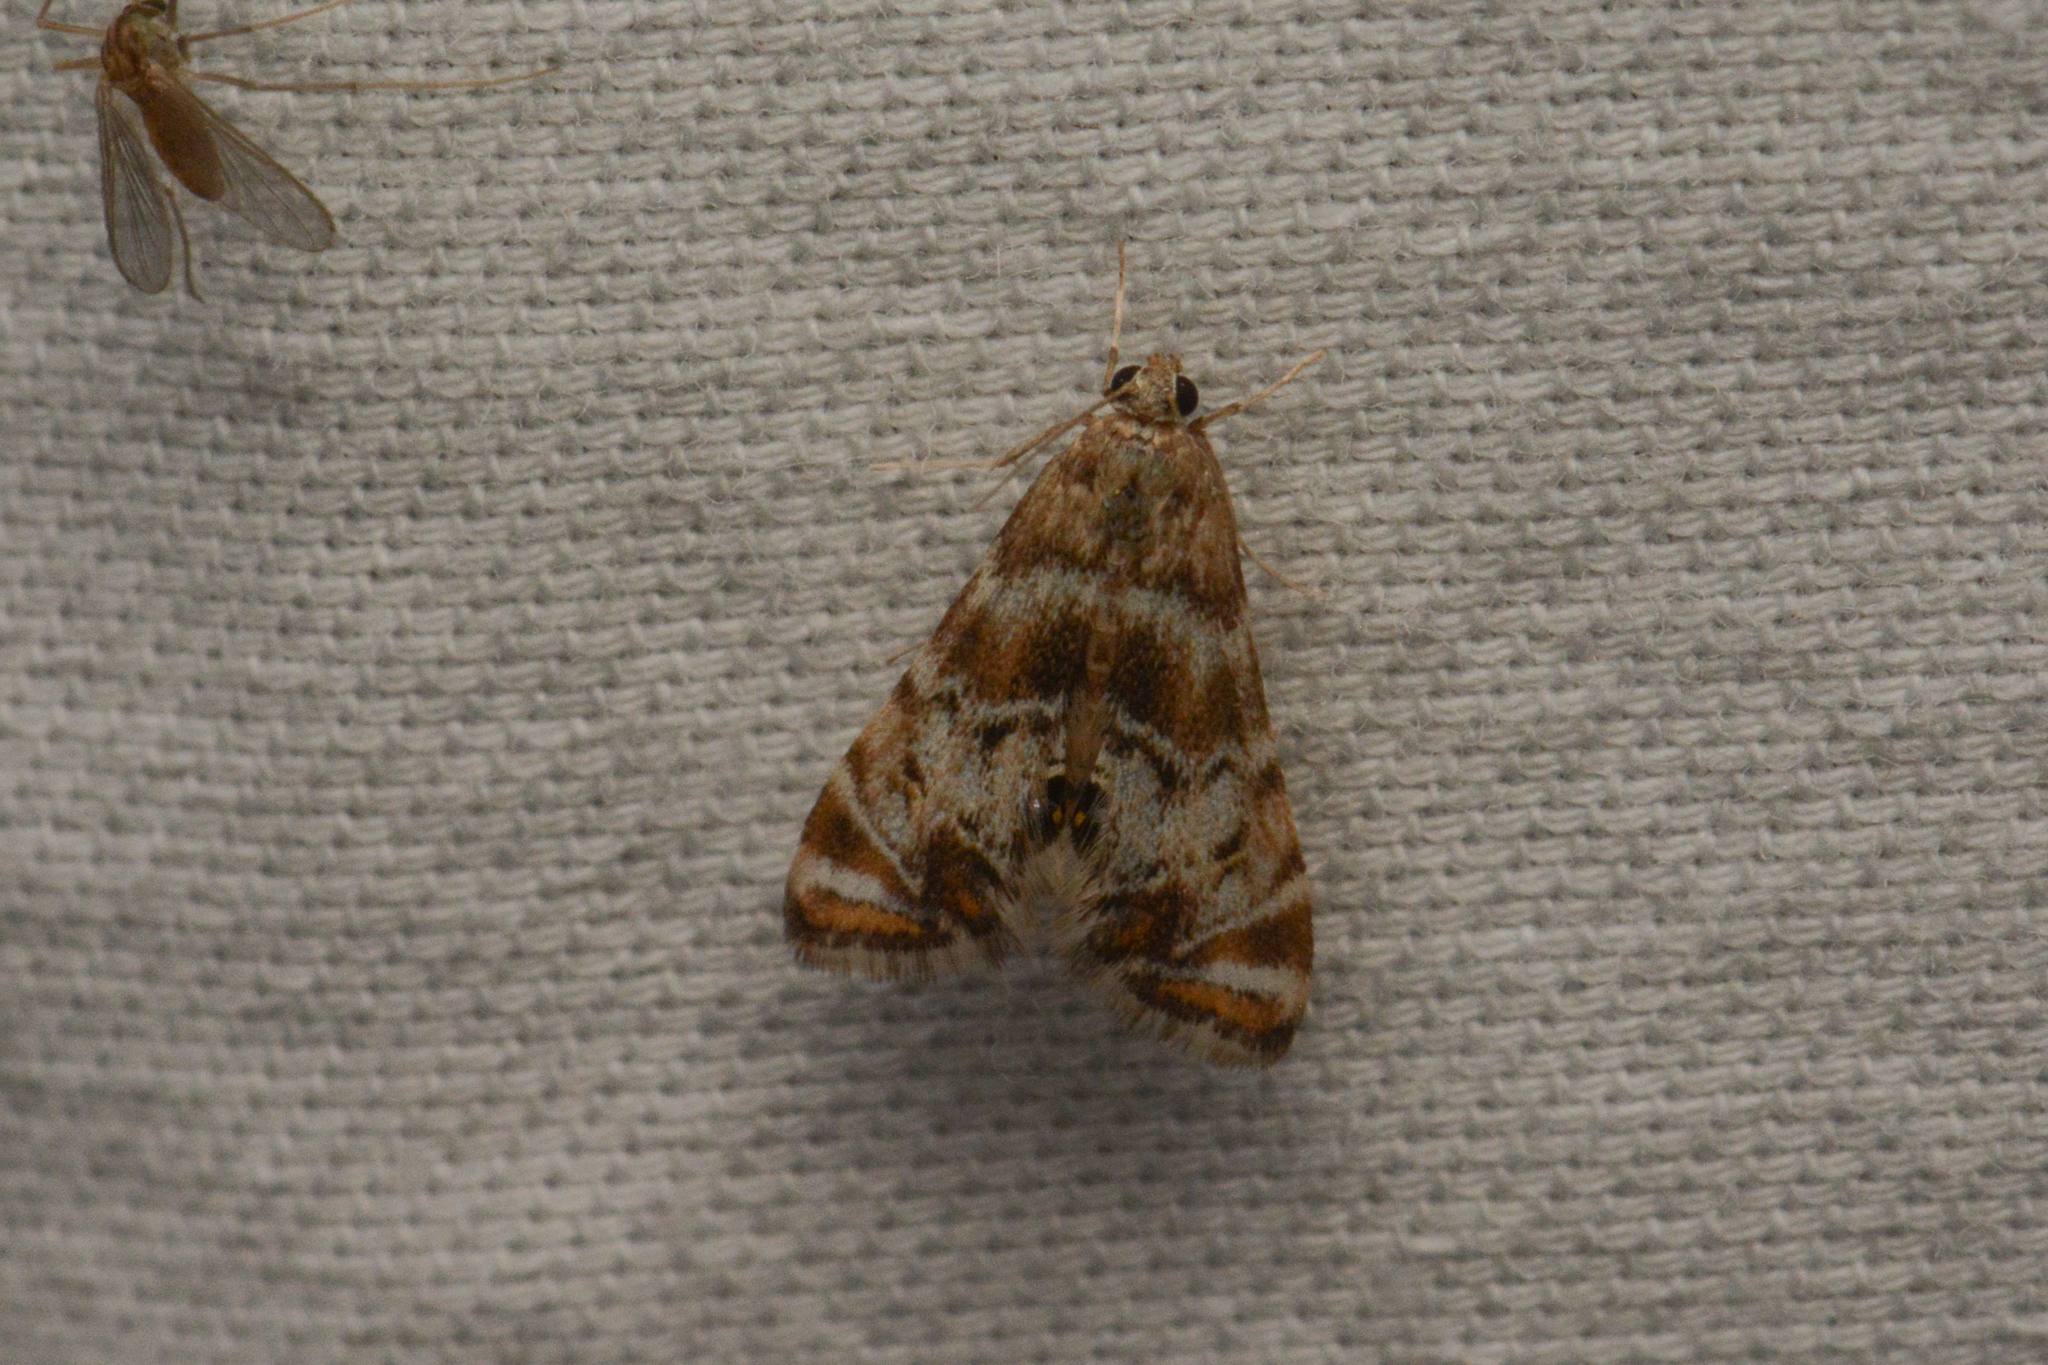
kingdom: Animalia
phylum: Arthropoda
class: Insecta
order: Lepidoptera
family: Crambidae
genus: Petrophila
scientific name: Petrophila confusalis
